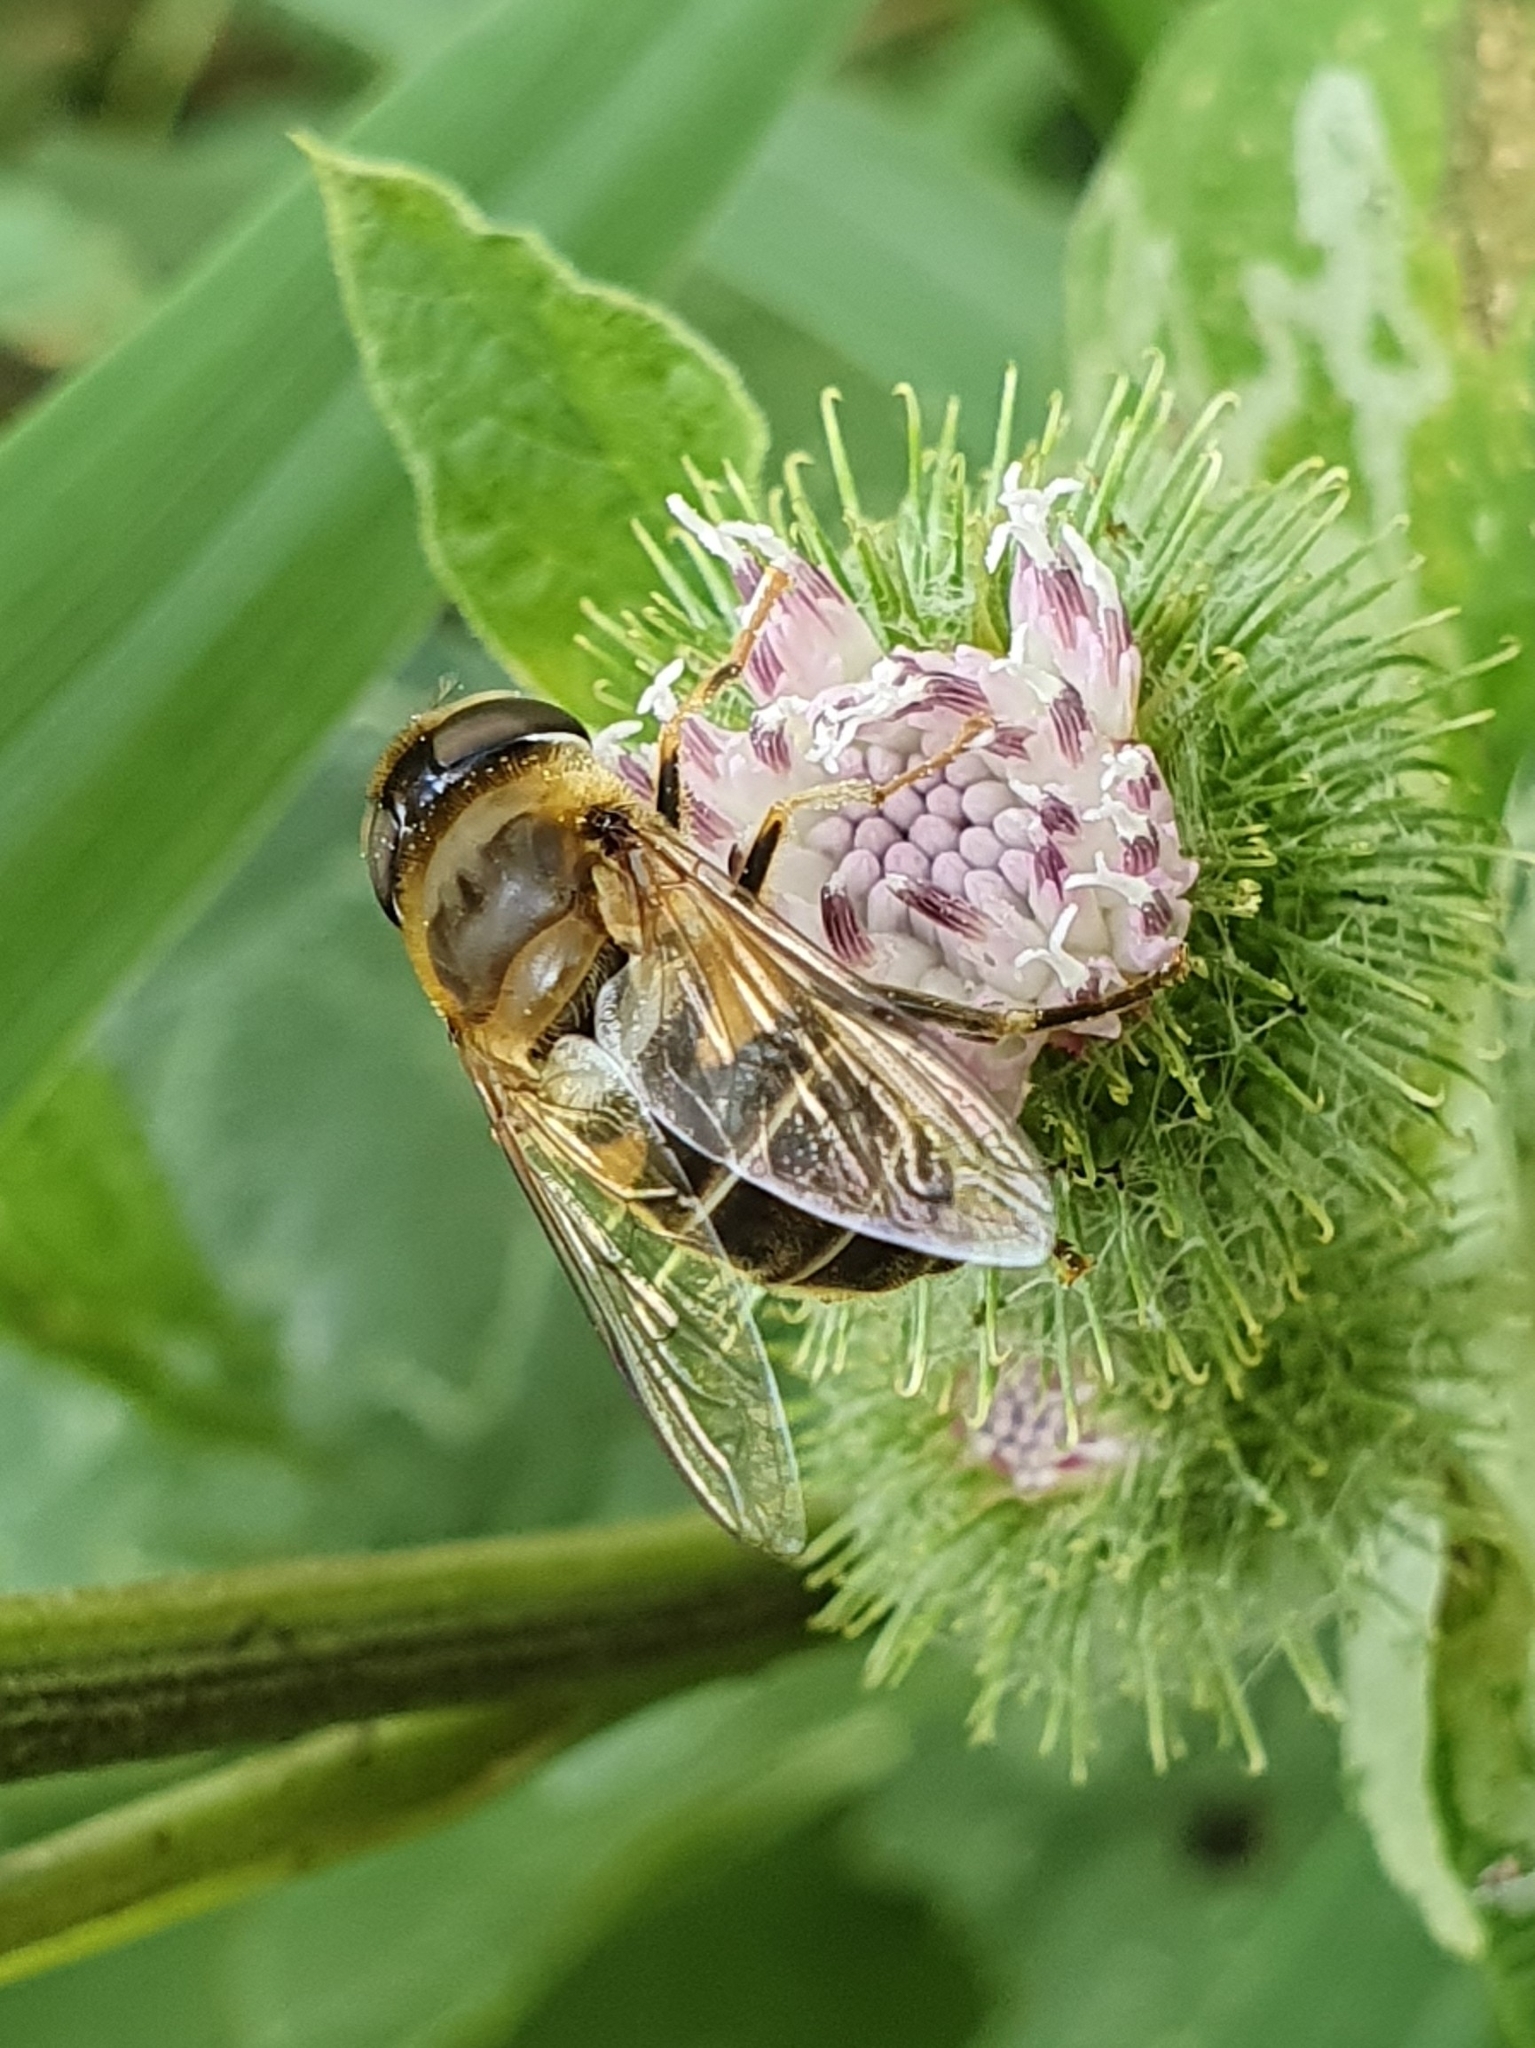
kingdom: Animalia
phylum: Arthropoda
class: Insecta
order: Diptera
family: Syrphidae
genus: Eristalis
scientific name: Eristalis pertinax
